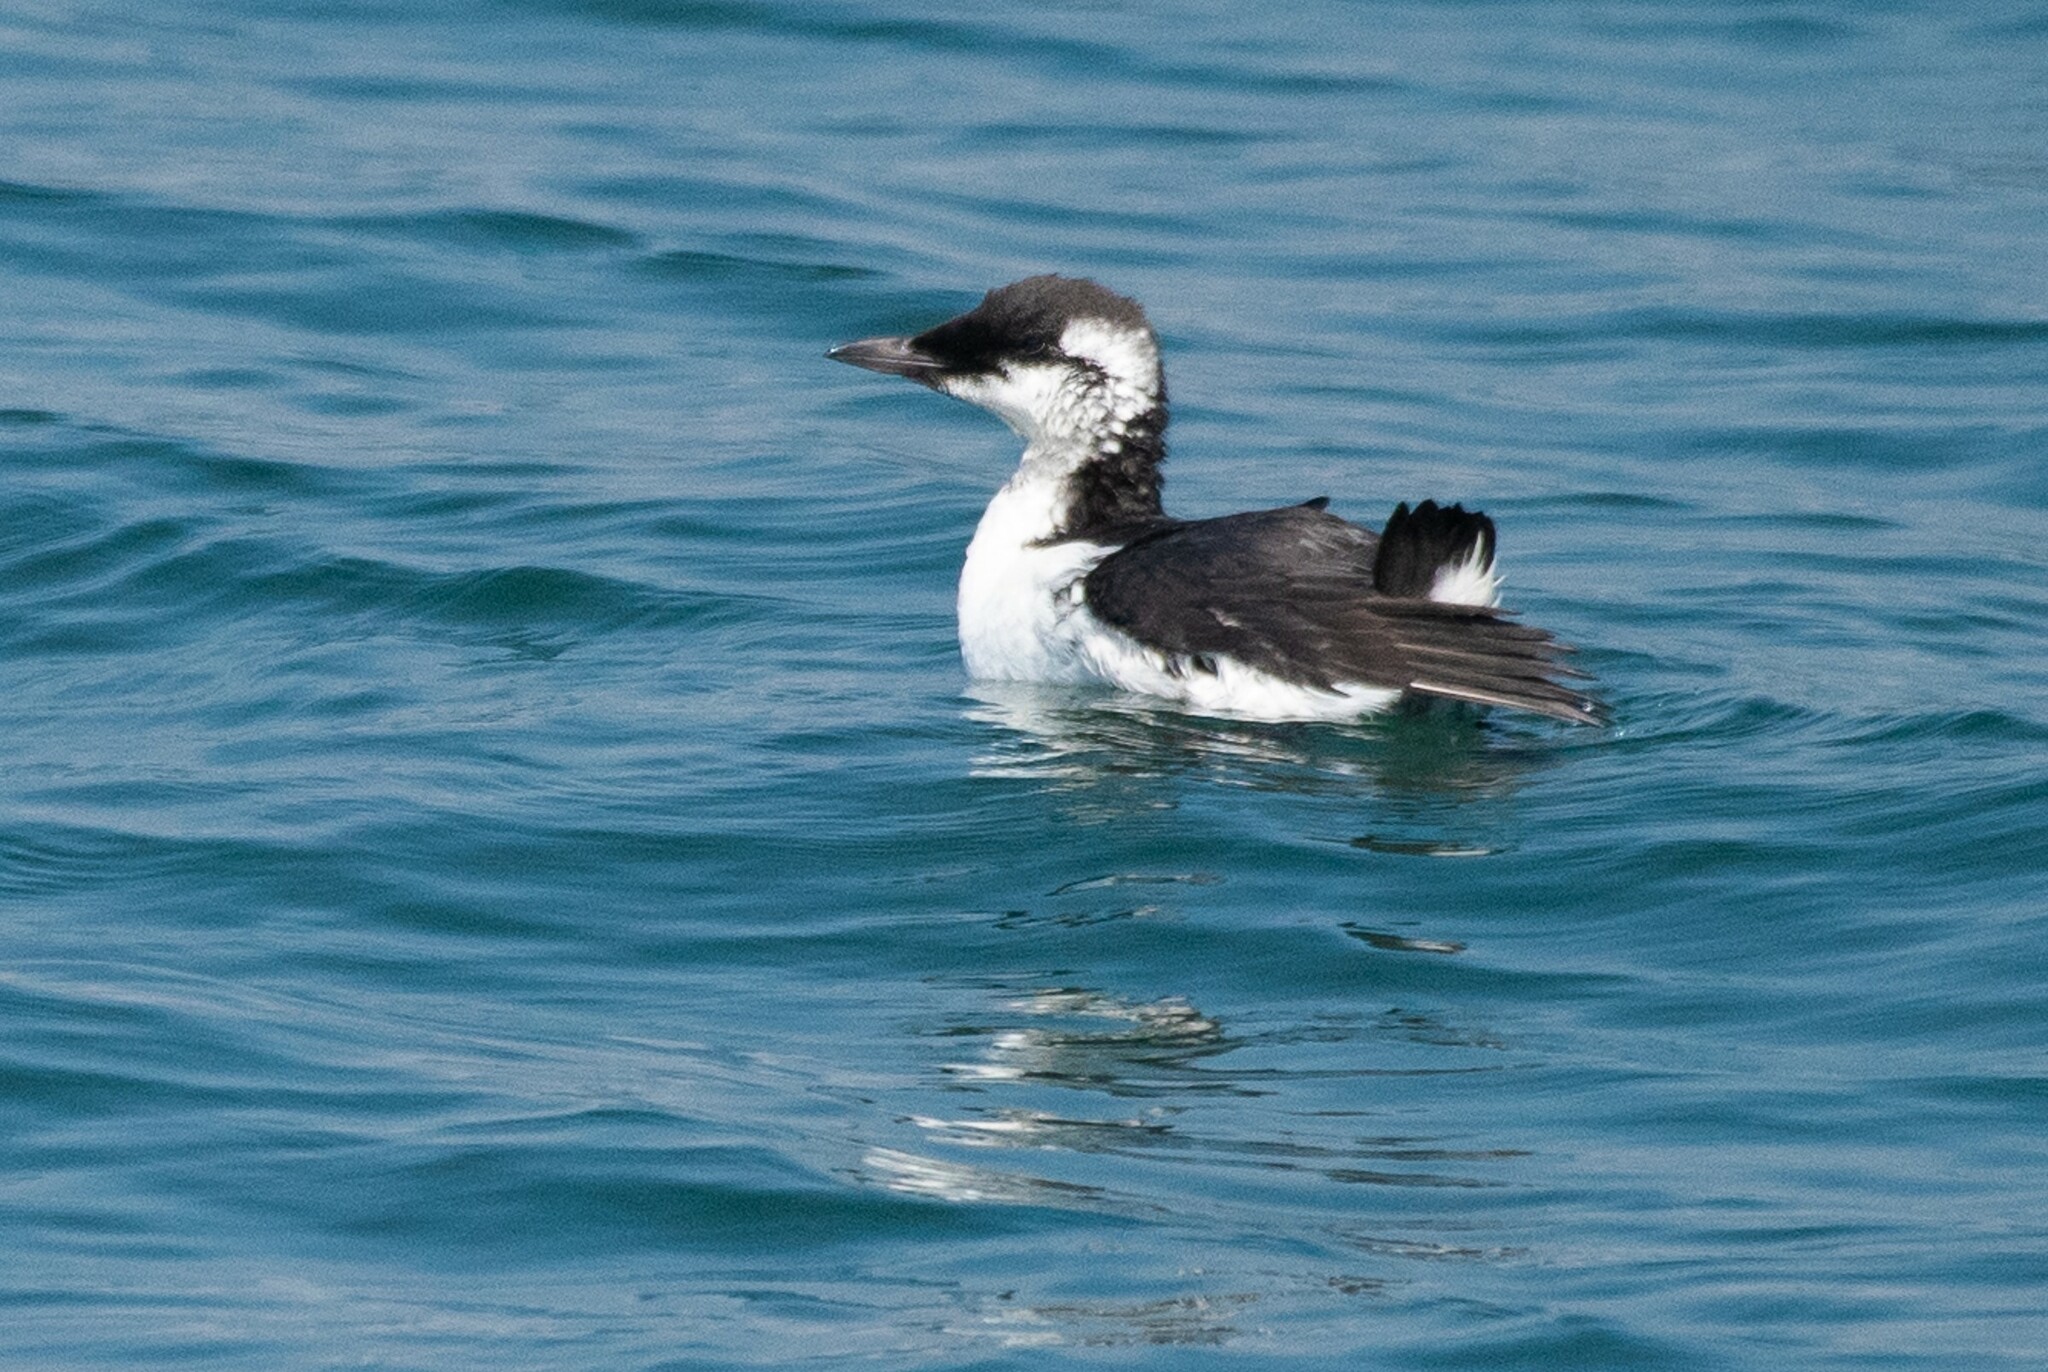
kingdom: Animalia
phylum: Chordata
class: Aves
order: Charadriiformes
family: Alcidae
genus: Uria
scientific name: Uria aalge
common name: Common murre
